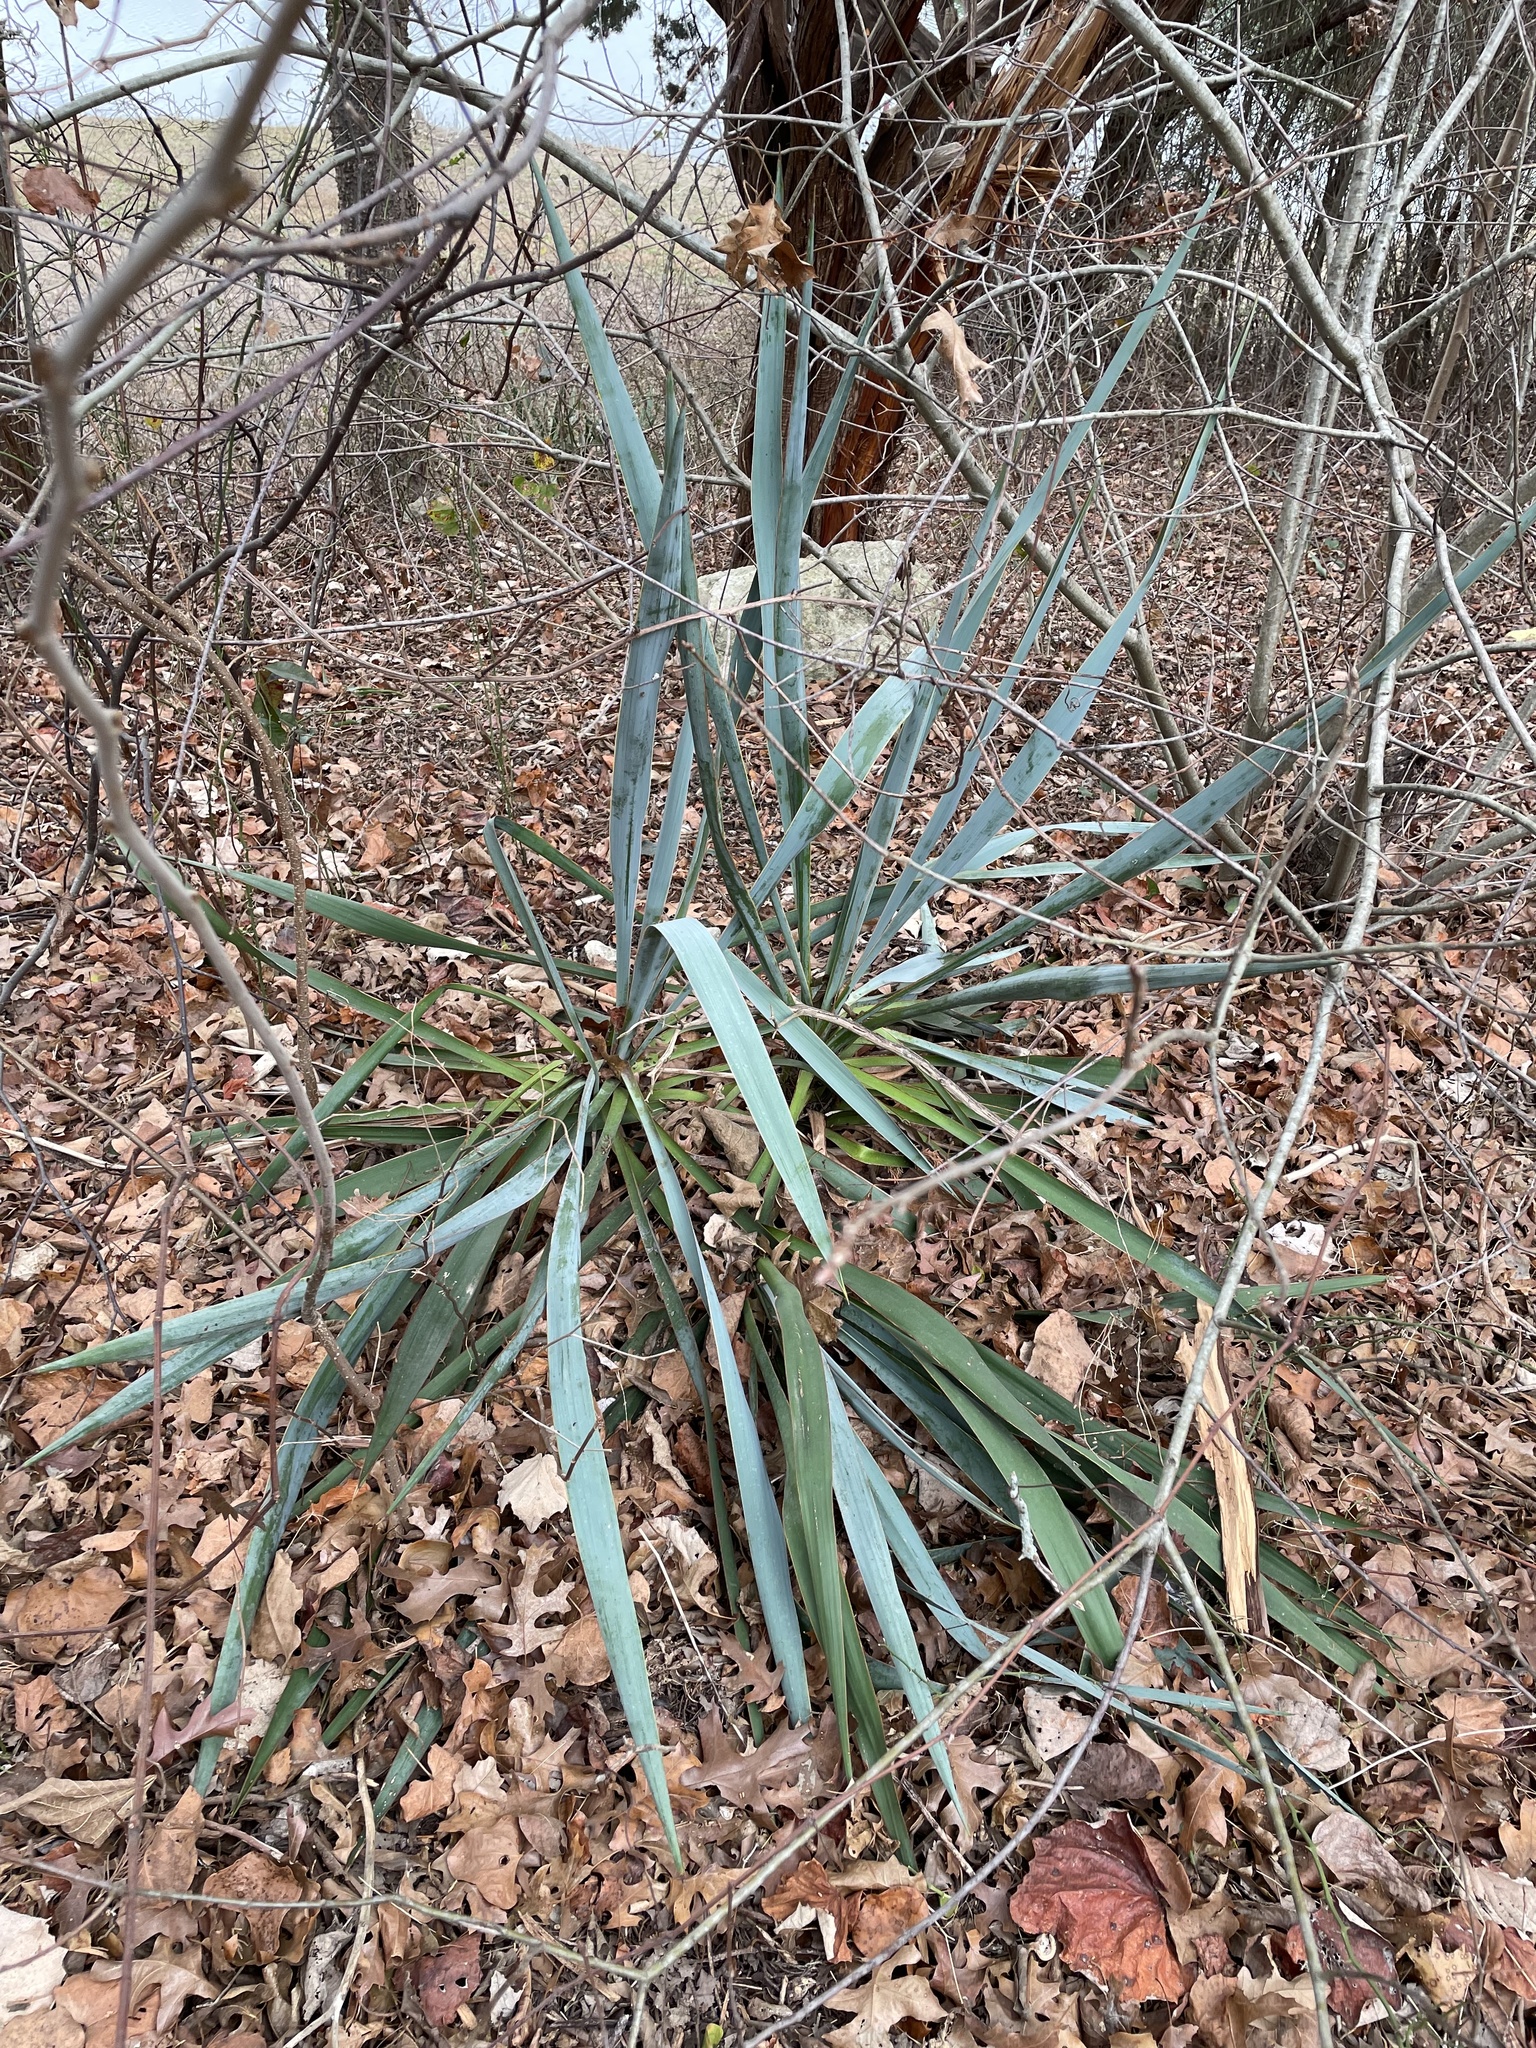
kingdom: Plantae
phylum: Tracheophyta
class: Liliopsida
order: Asparagales
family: Asparagaceae
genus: Yucca
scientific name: Yucca pallida
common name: Pale leaf yucca
